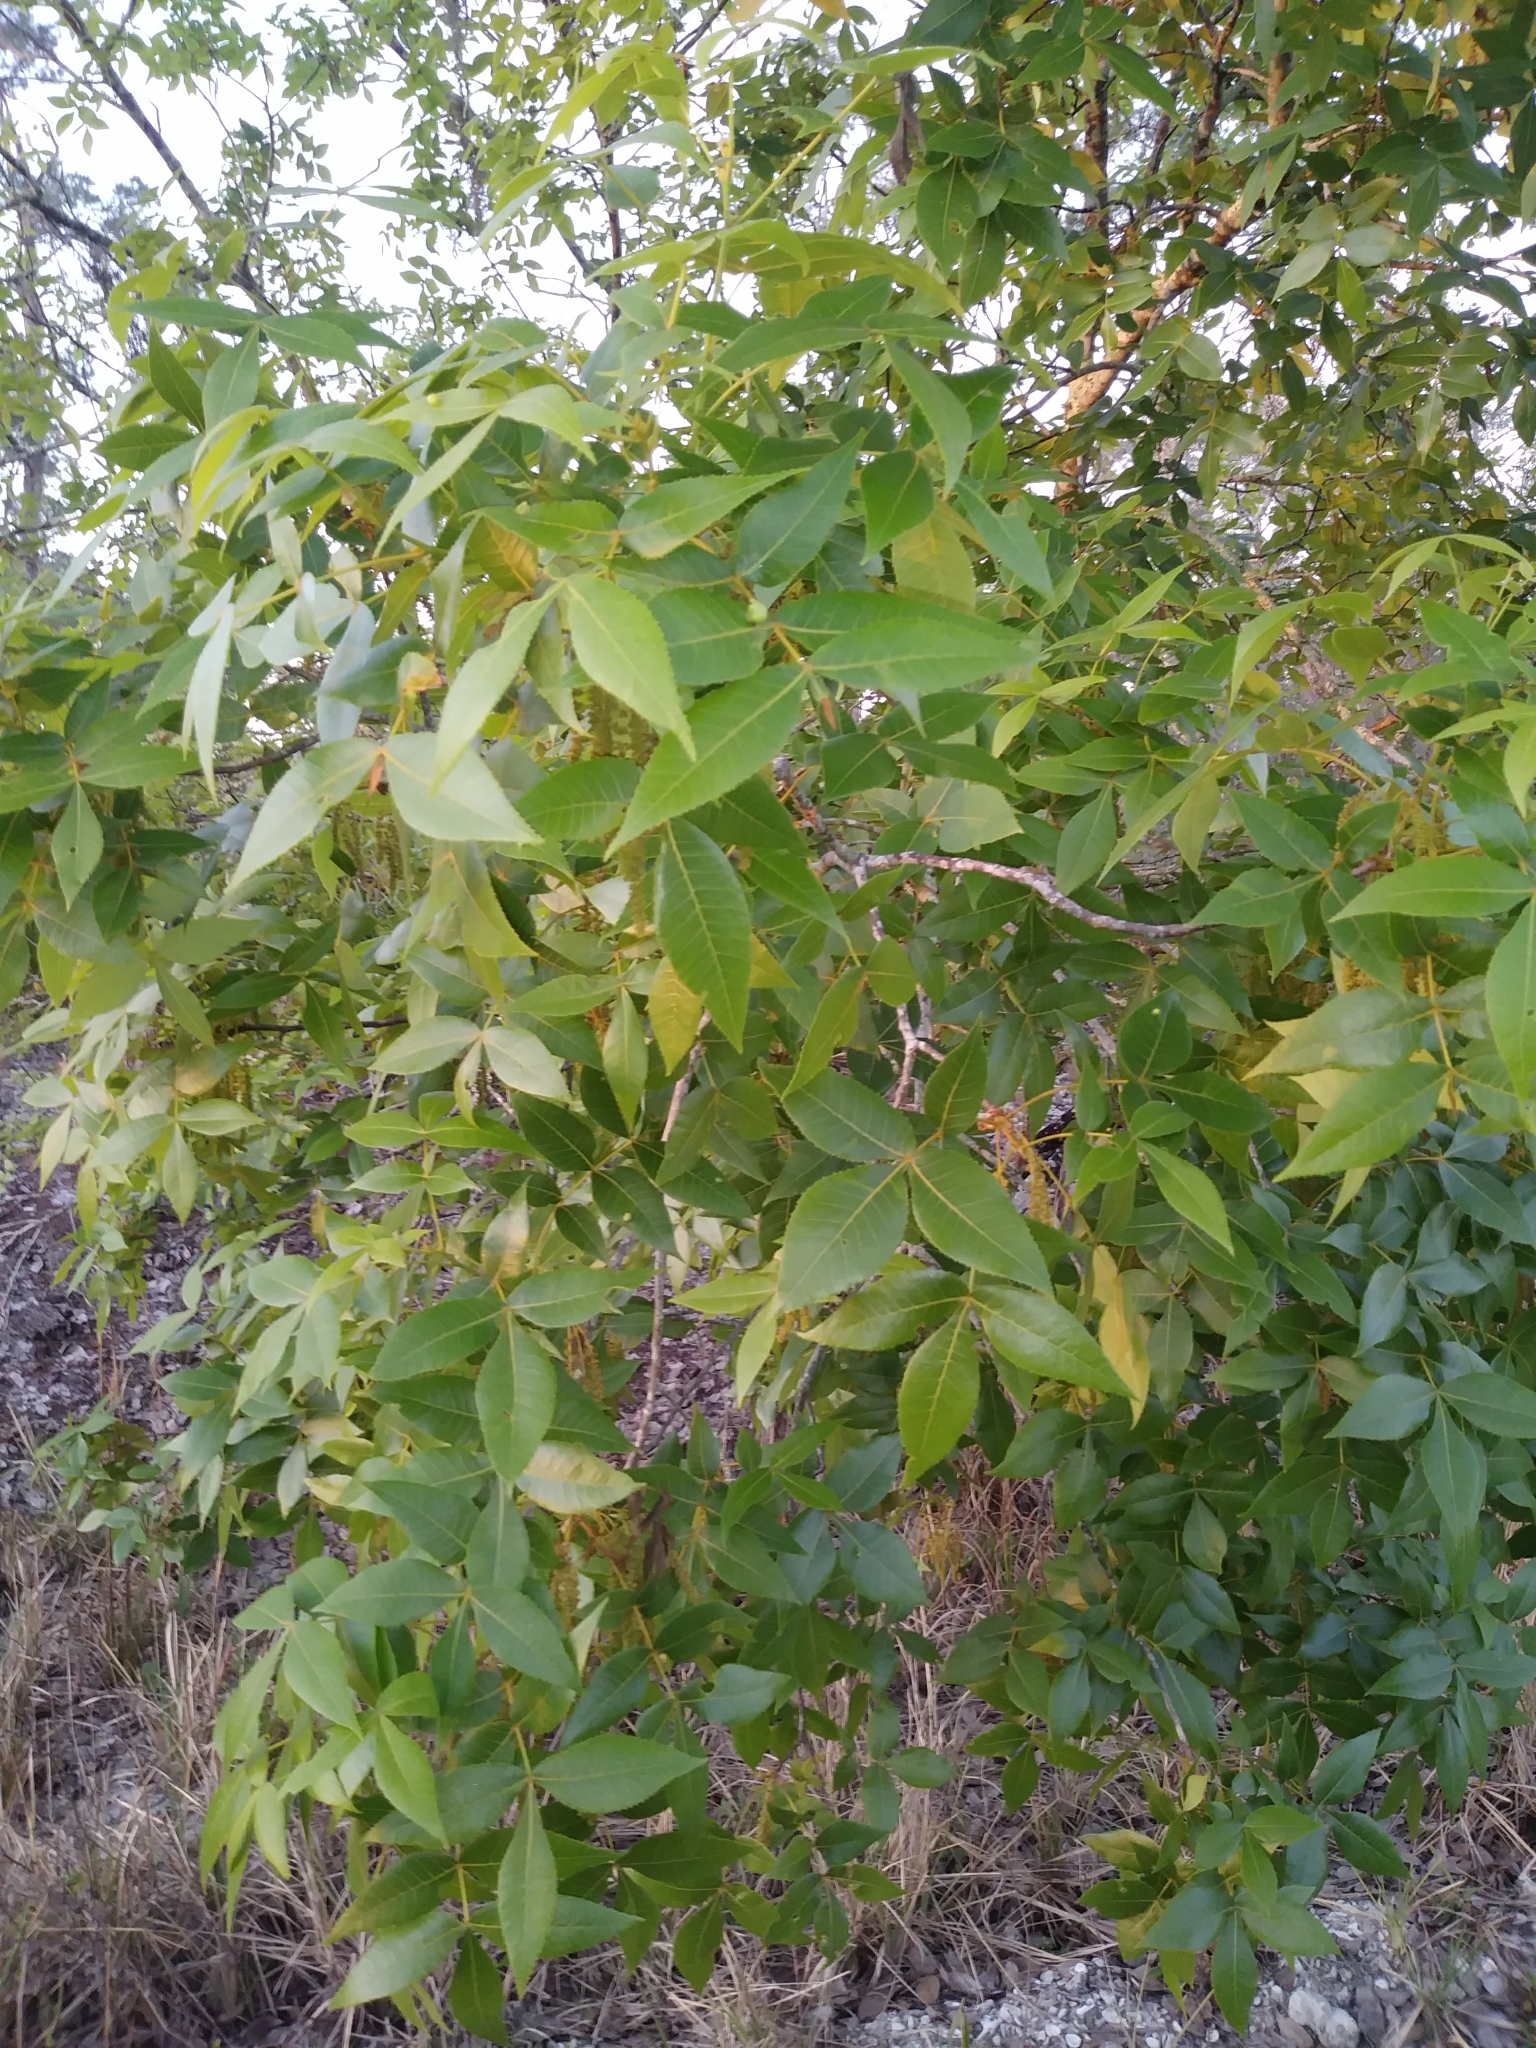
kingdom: Plantae
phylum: Tracheophyta
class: Magnoliopsida
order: Fagales
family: Juglandaceae
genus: Carya
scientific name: Carya floridana
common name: Scrub hickory
